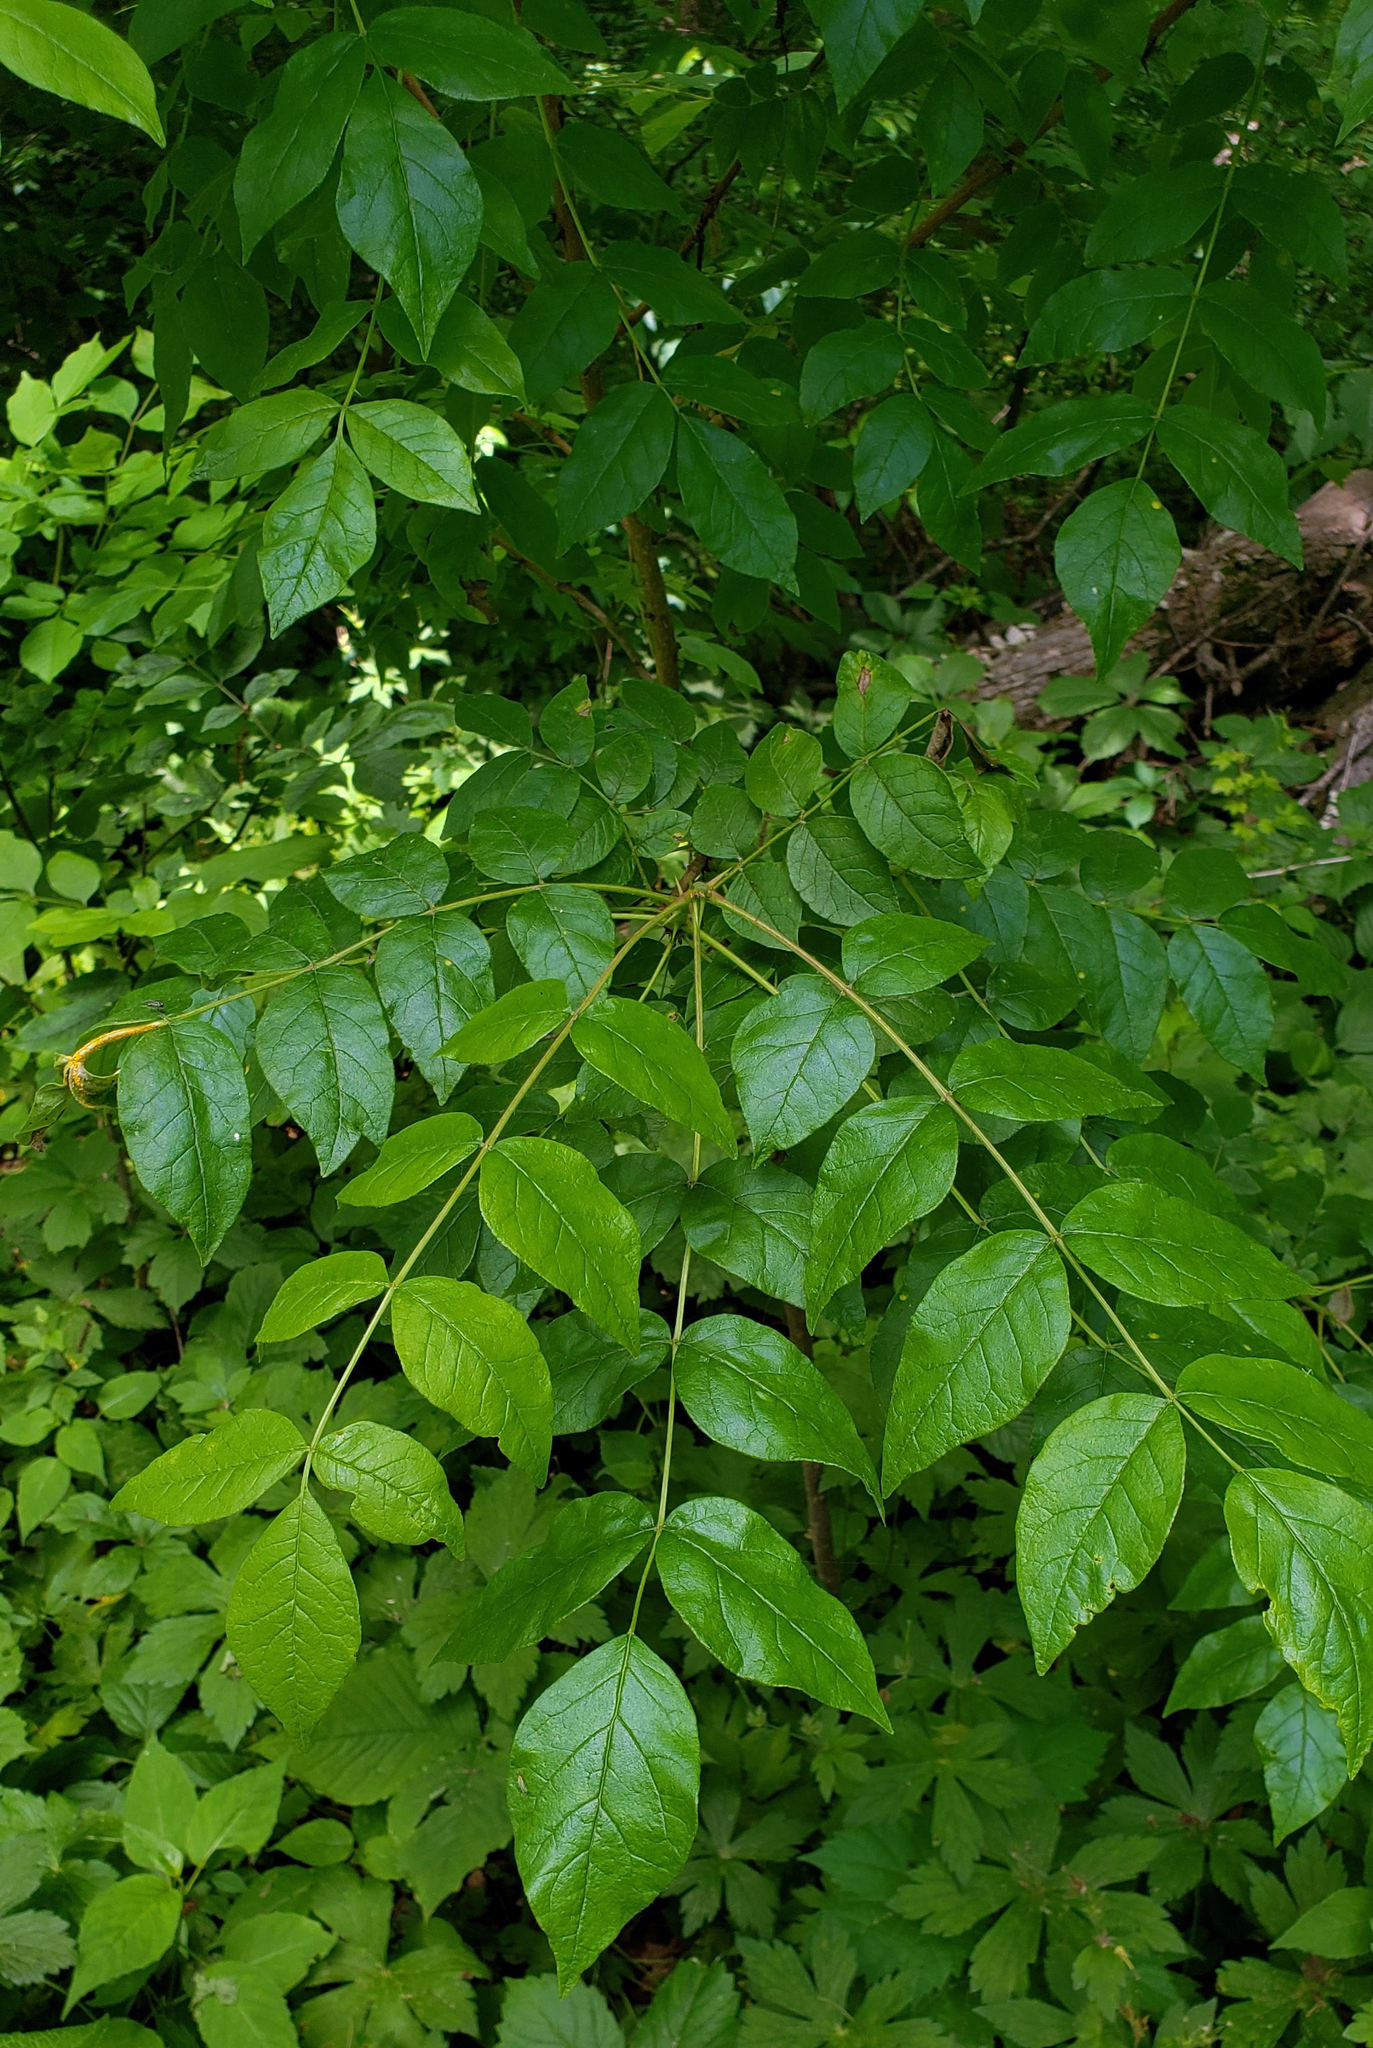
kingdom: Plantae
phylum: Tracheophyta
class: Magnoliopsida
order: Sapindales
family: Rutaceae
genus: Zanthoxylum
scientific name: Zanthoxylum americanum
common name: Northern prickly-ash
